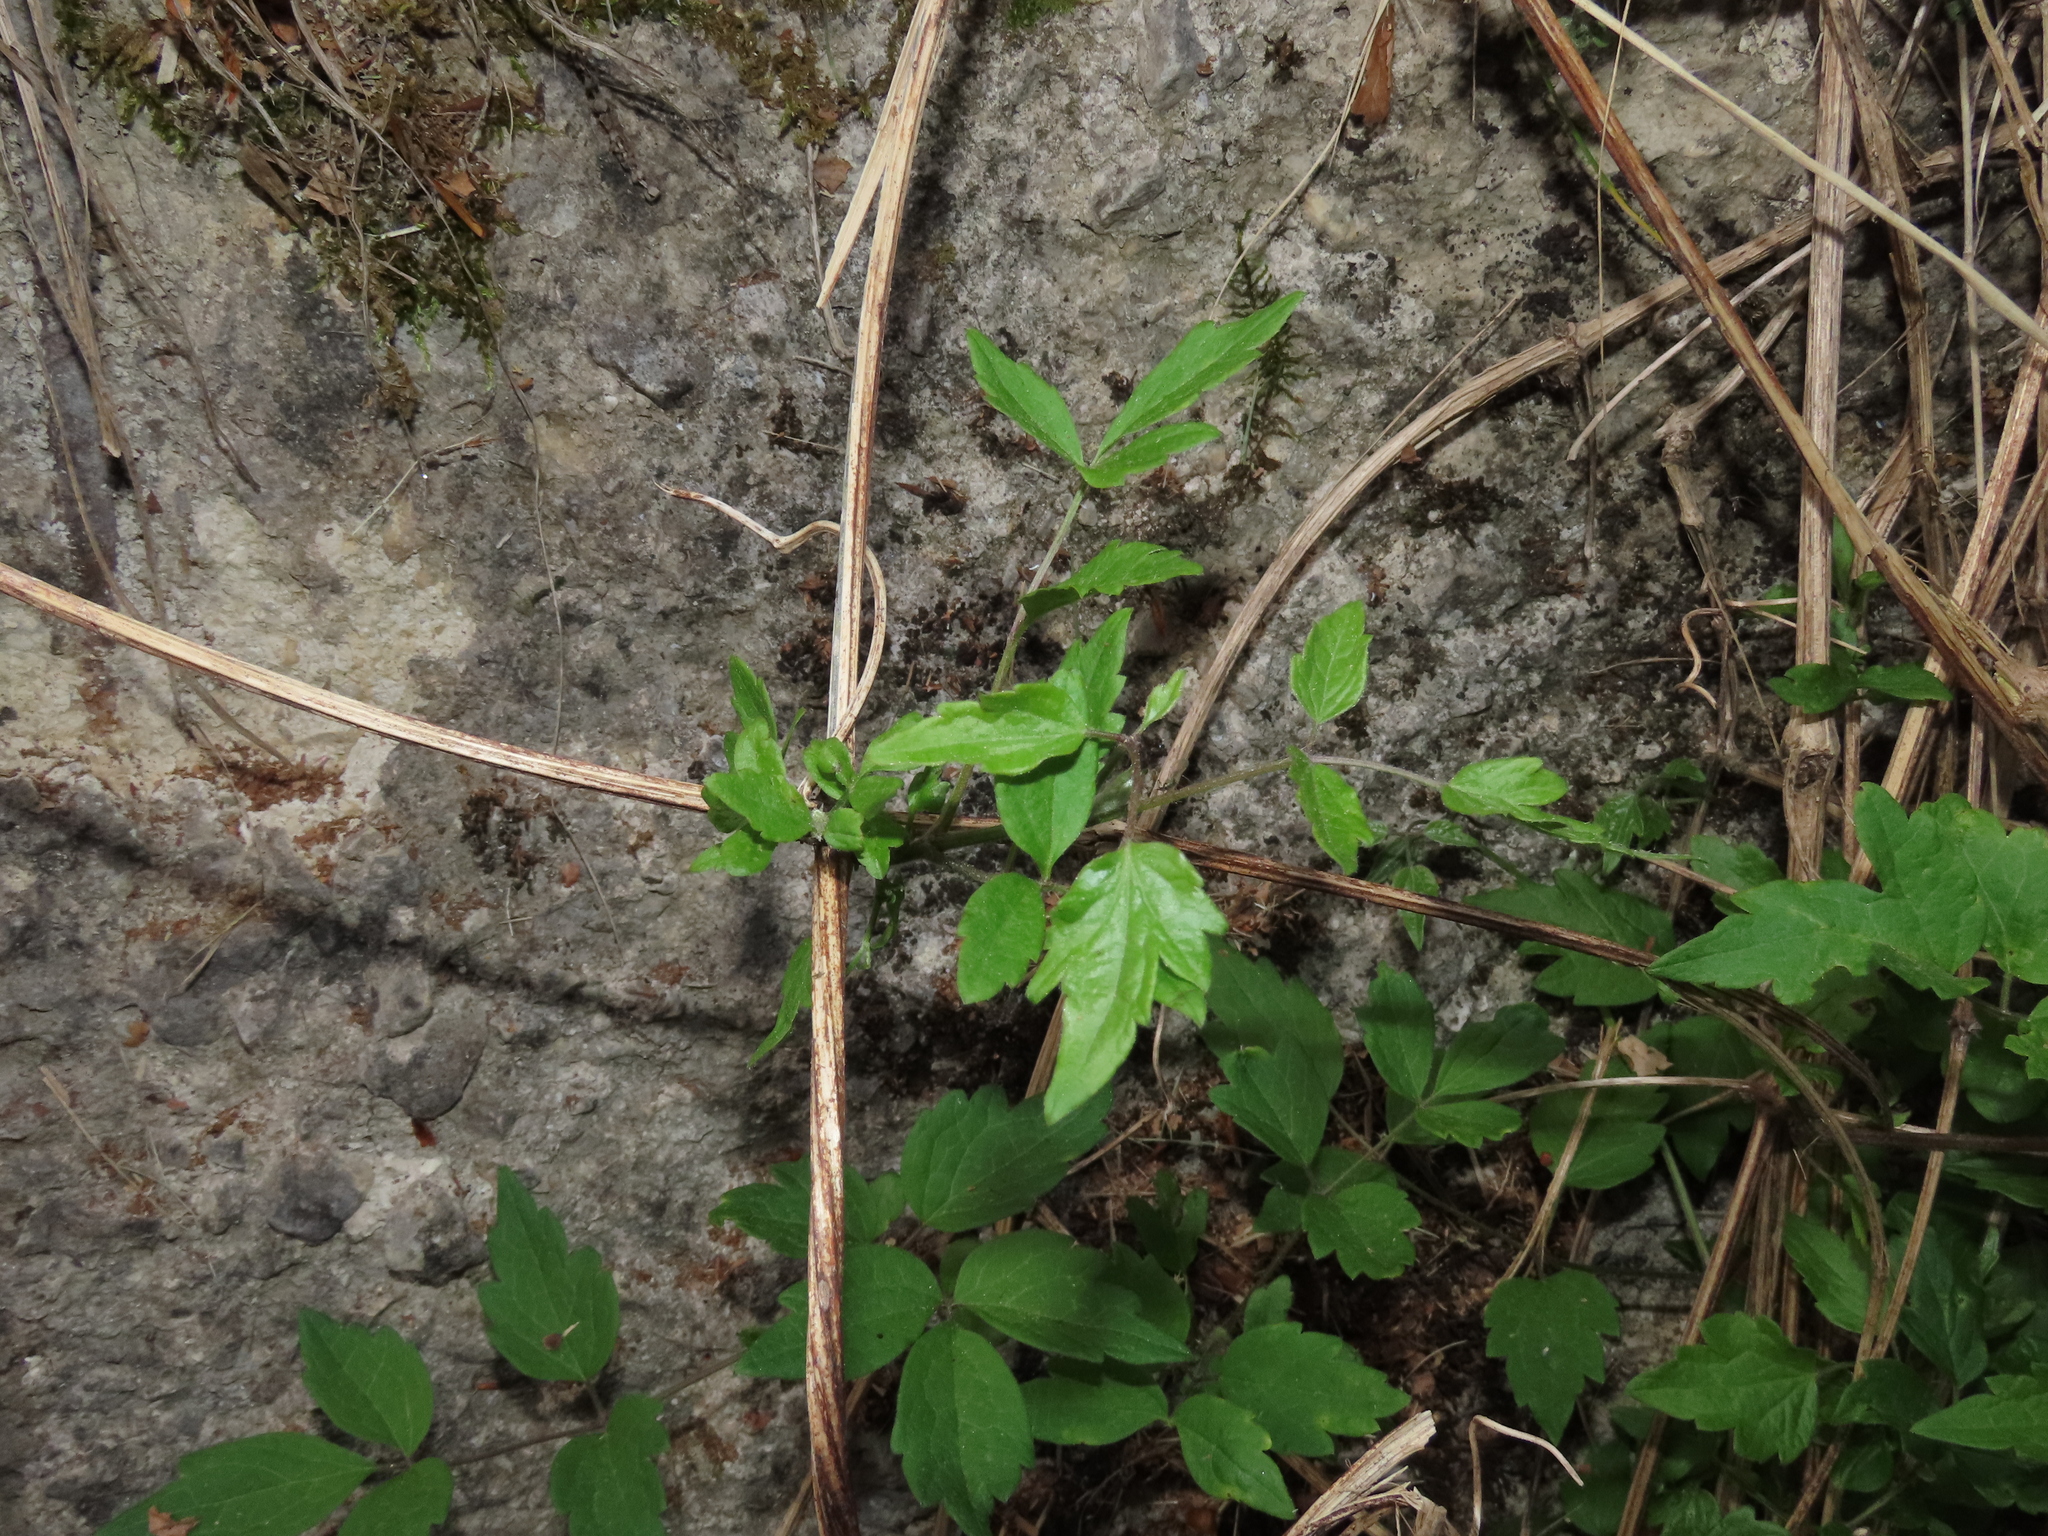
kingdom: Plantae
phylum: Tracheophyta
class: Magnoliopsida
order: Ranunculales
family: Ranunculaceae
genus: Clematis
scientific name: Clematis vitalba
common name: Evergreen clematis
